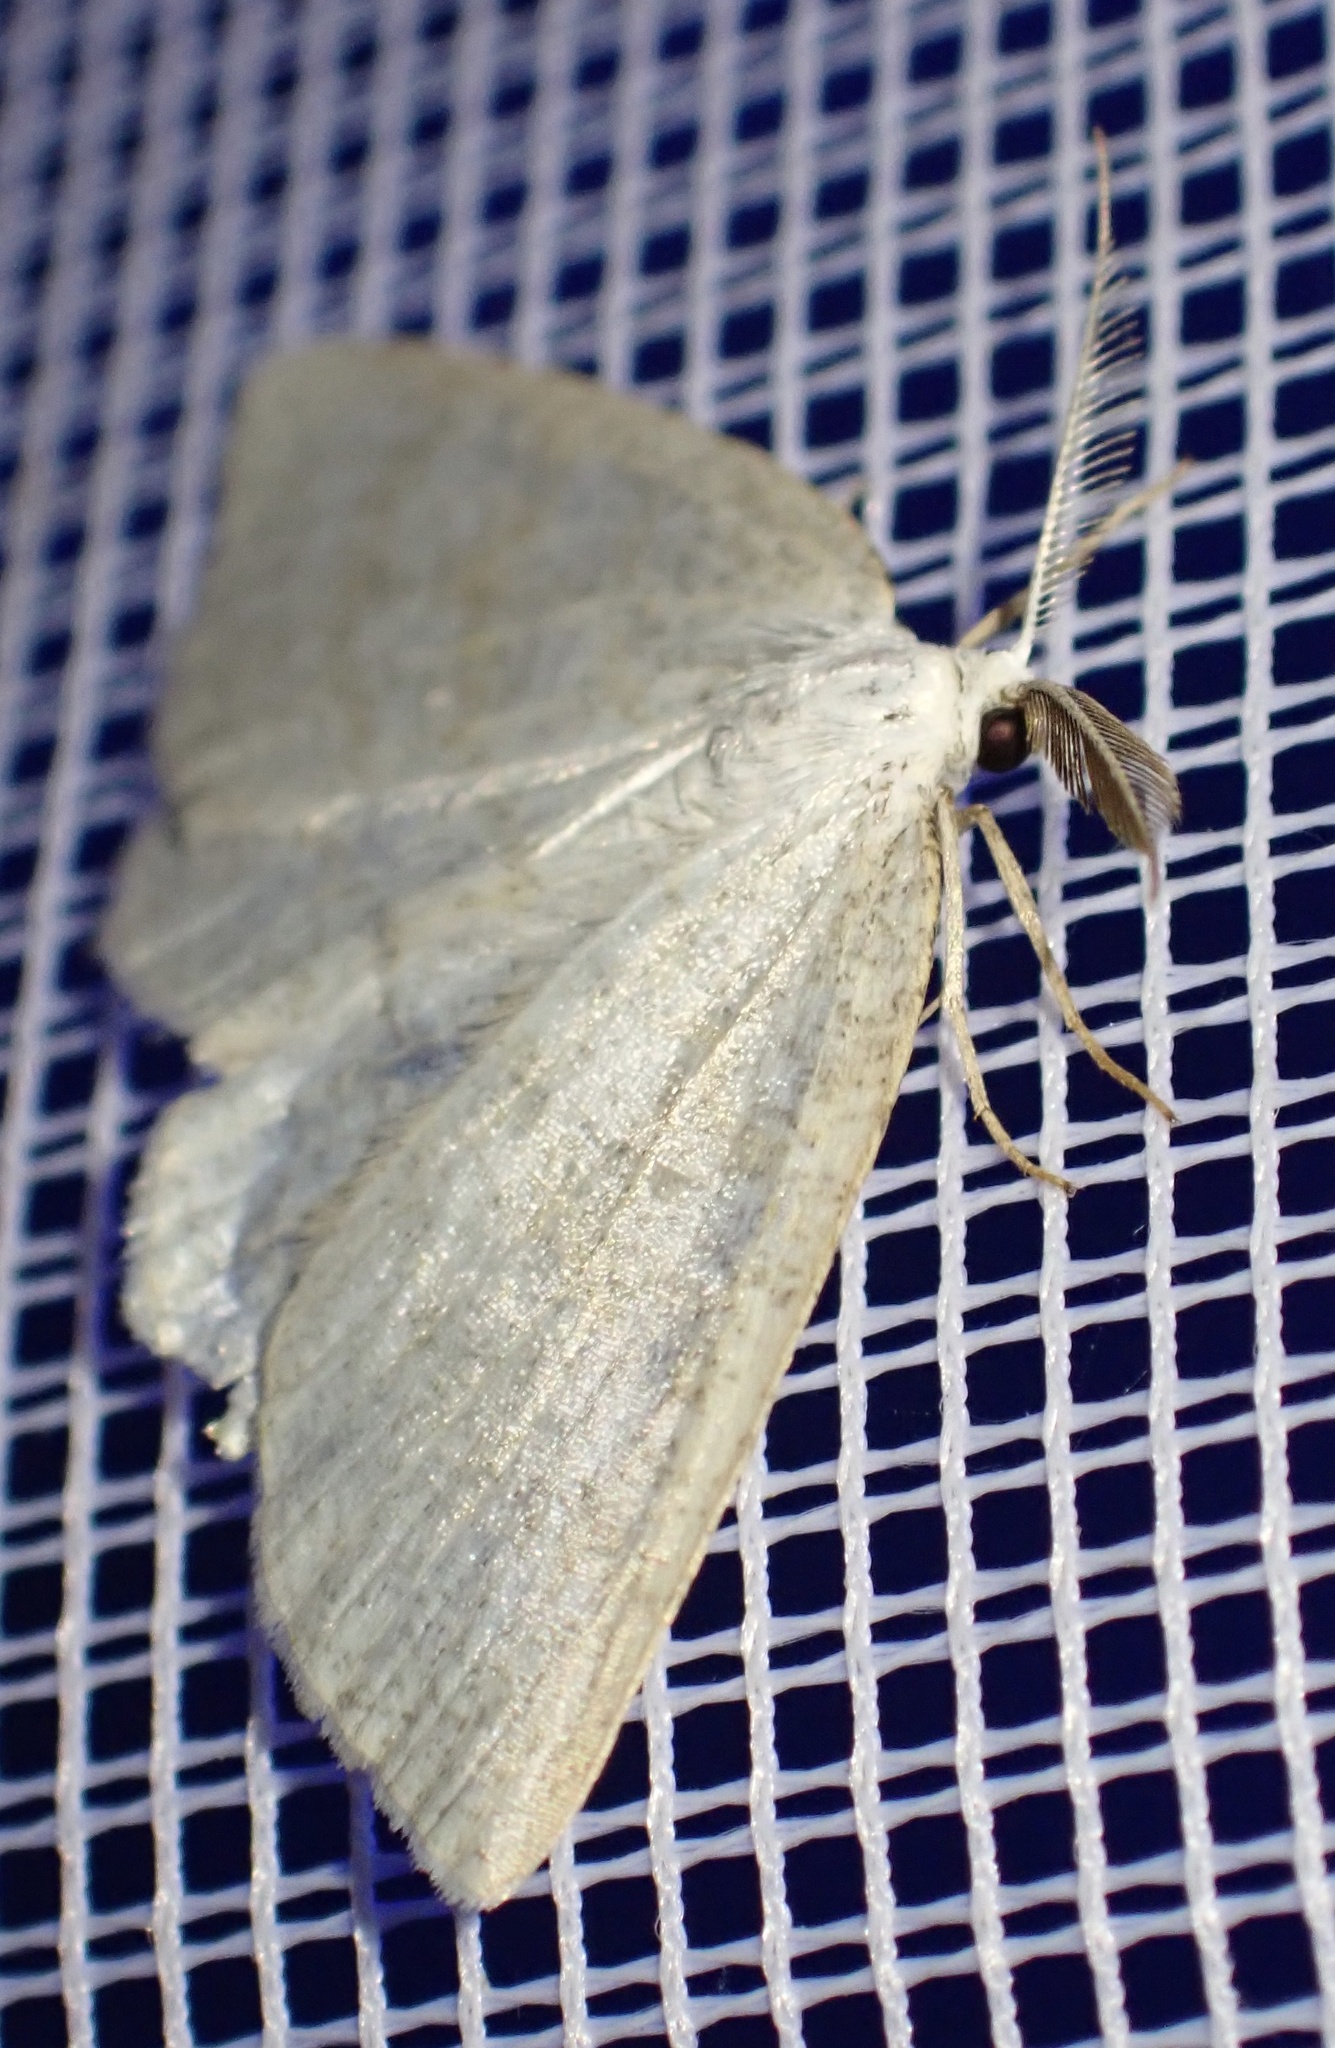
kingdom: Animalia
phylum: Arthropoda
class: Insecta
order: Lepidoptera
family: Geometridae
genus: Cabera
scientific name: Cabera exanthemata
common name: Common wave
